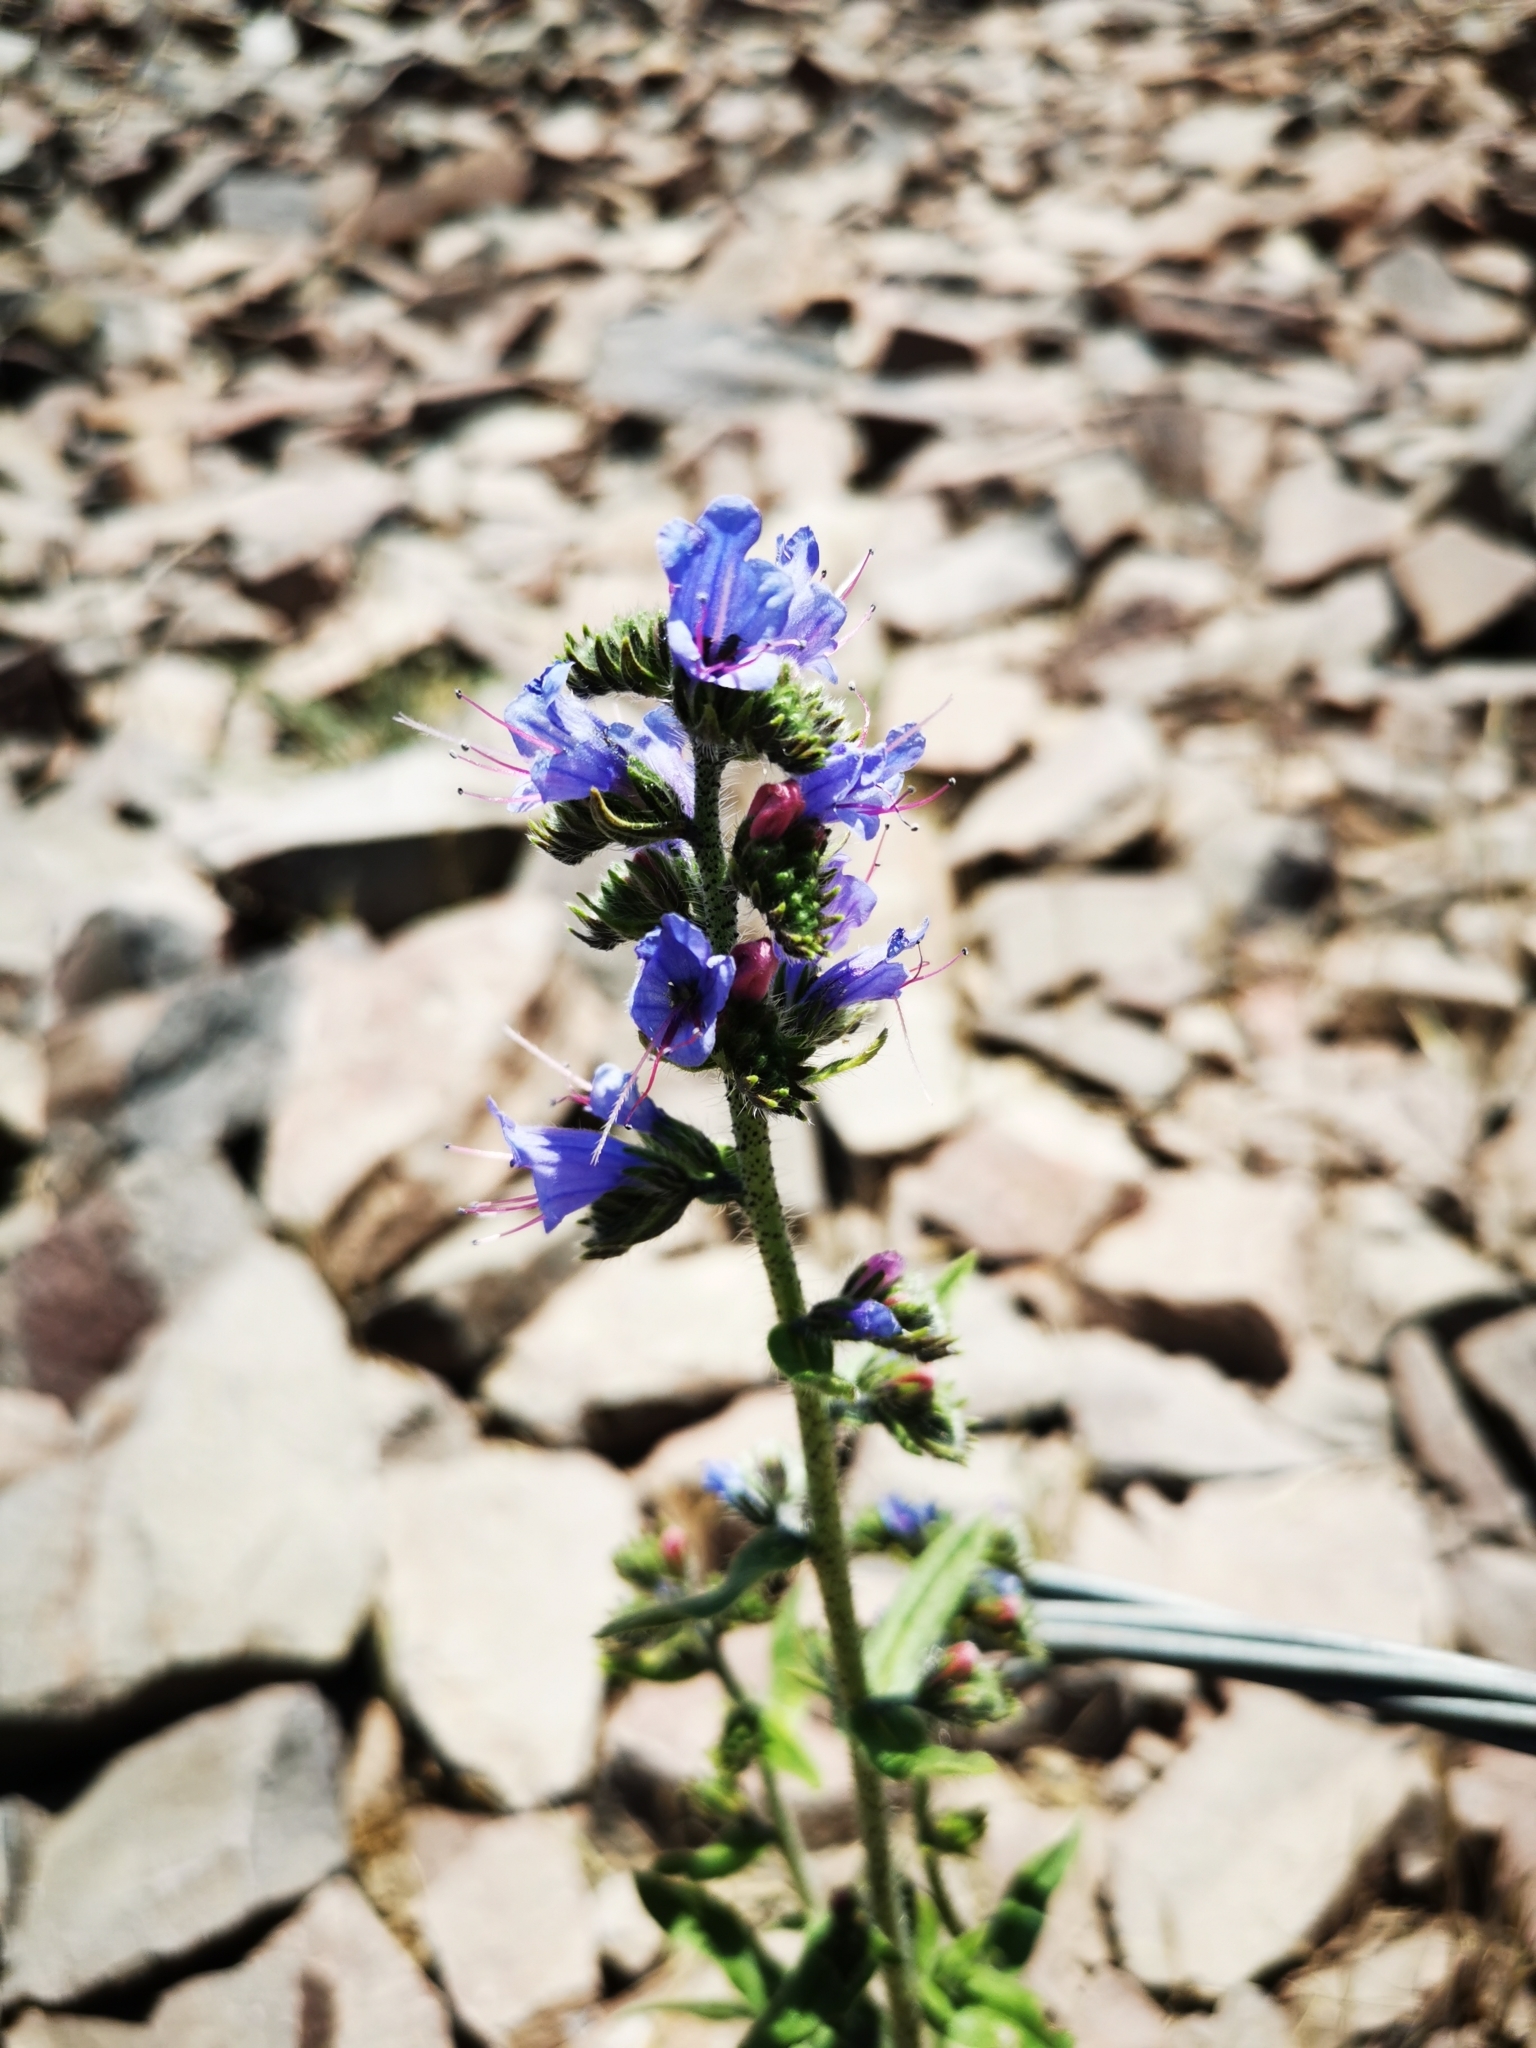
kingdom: Plantae
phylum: Tracheophyta
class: Magnoliopsida
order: Boraginales
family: Boraginaceae
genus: Echium
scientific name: Echium vulgare
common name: Common viper's bugloss
